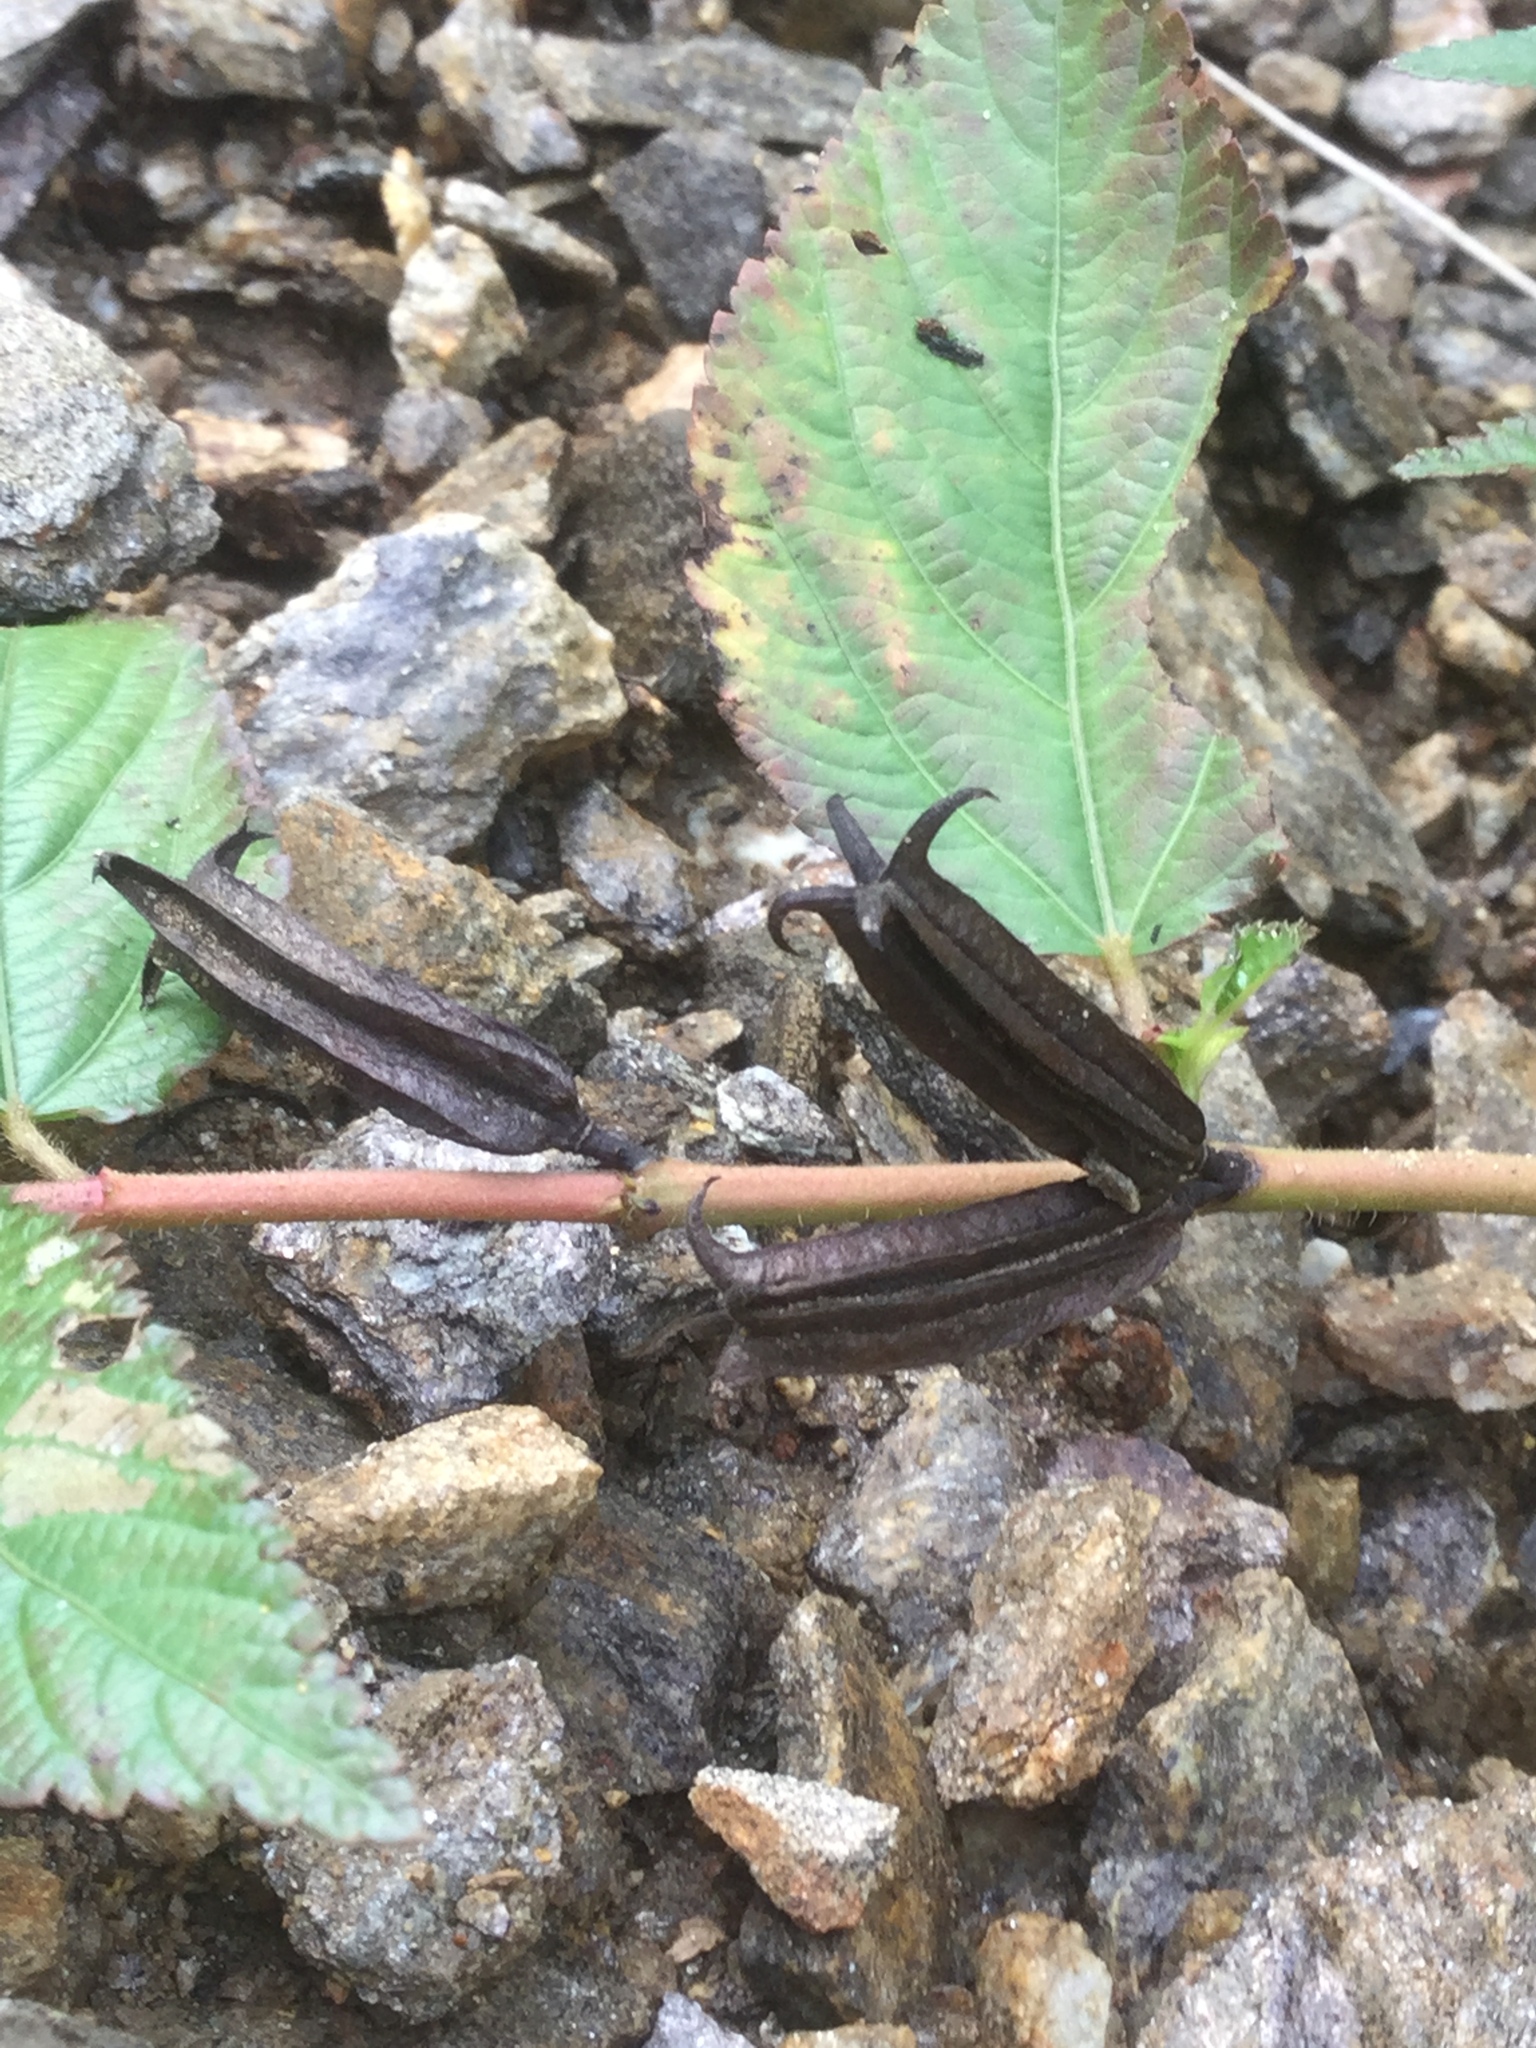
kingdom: Plantae
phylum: Tracheophyta
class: Magnoliopsida
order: Malvales
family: Malvaceae
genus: Corchorus
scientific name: Corchorus aestuans
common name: Jute
